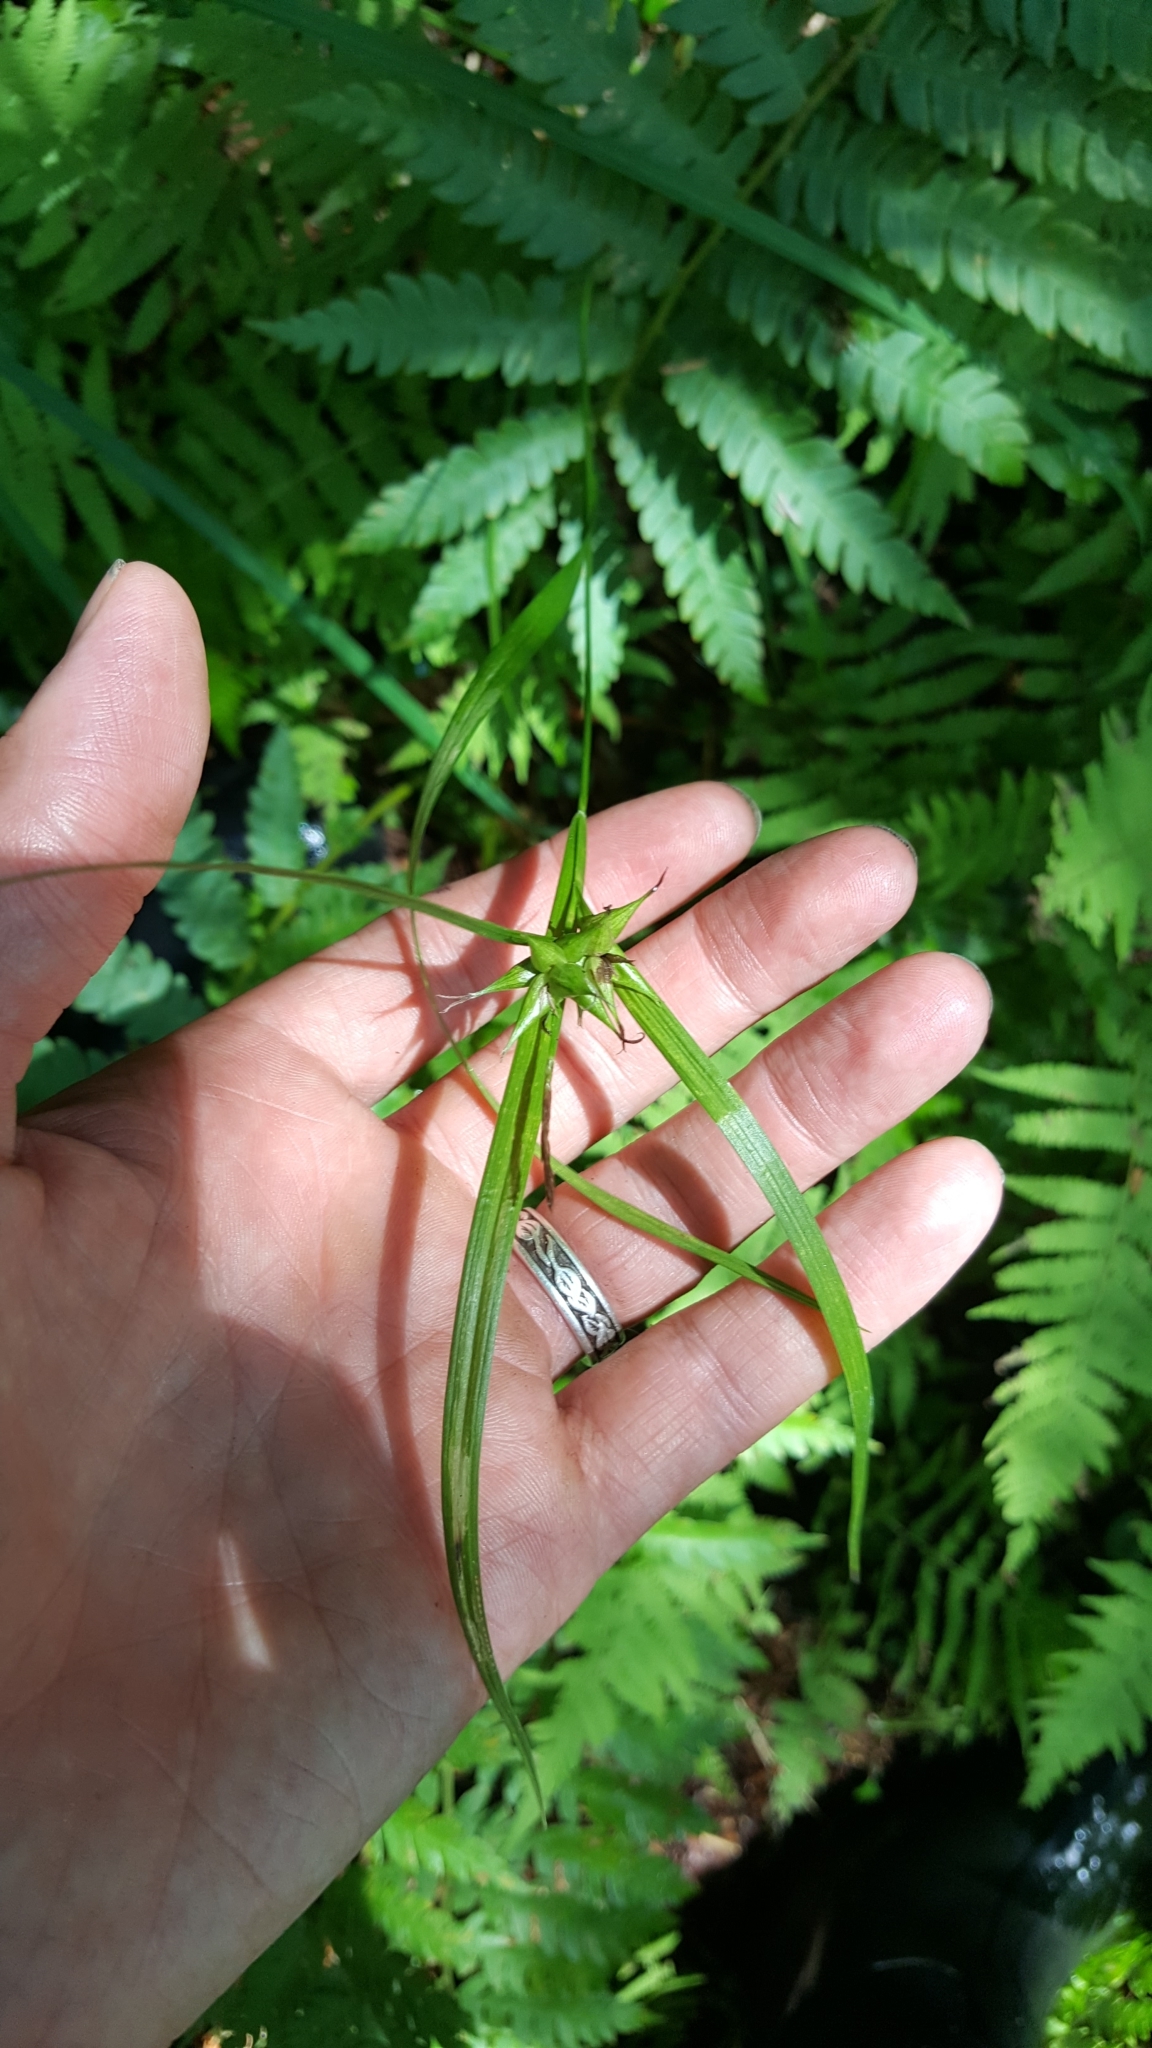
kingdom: Plantae
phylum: Tracheophyta
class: Liliopsida
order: Poales
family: Cyperaceae
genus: Carex
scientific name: Carex intumescens
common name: Greater bladder sedge
